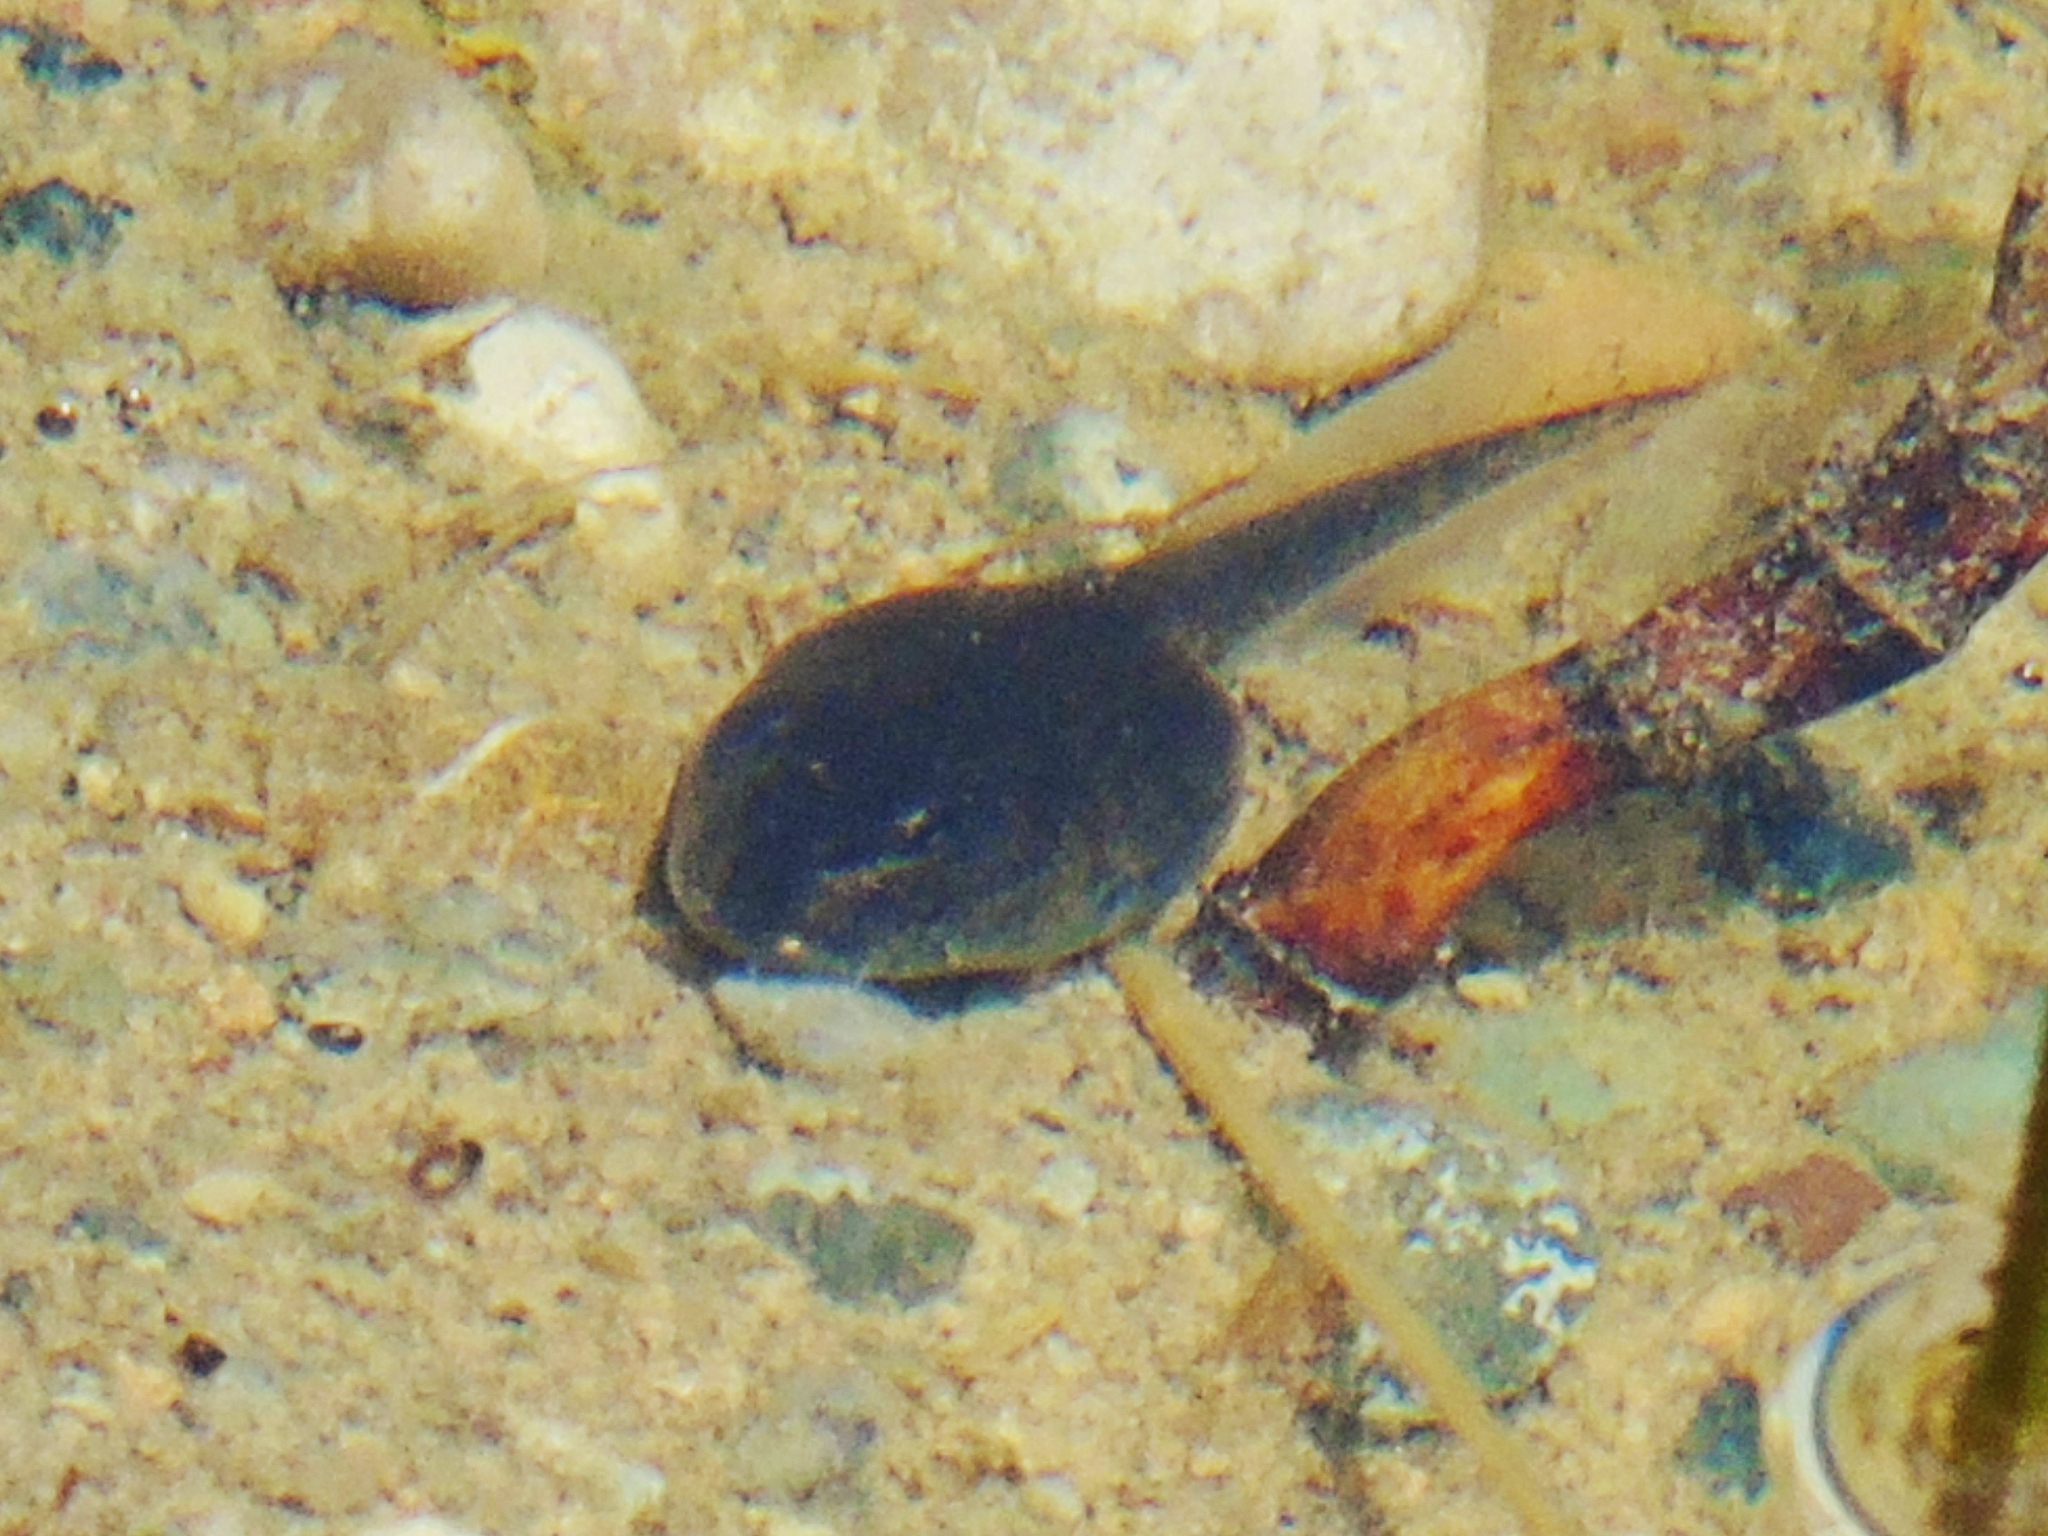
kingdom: Animalia
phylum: Chordata
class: Amphibia
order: Anura
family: Bufonidae
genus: Bufotes
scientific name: Bufotes pewzowi
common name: Xinjiang toad
